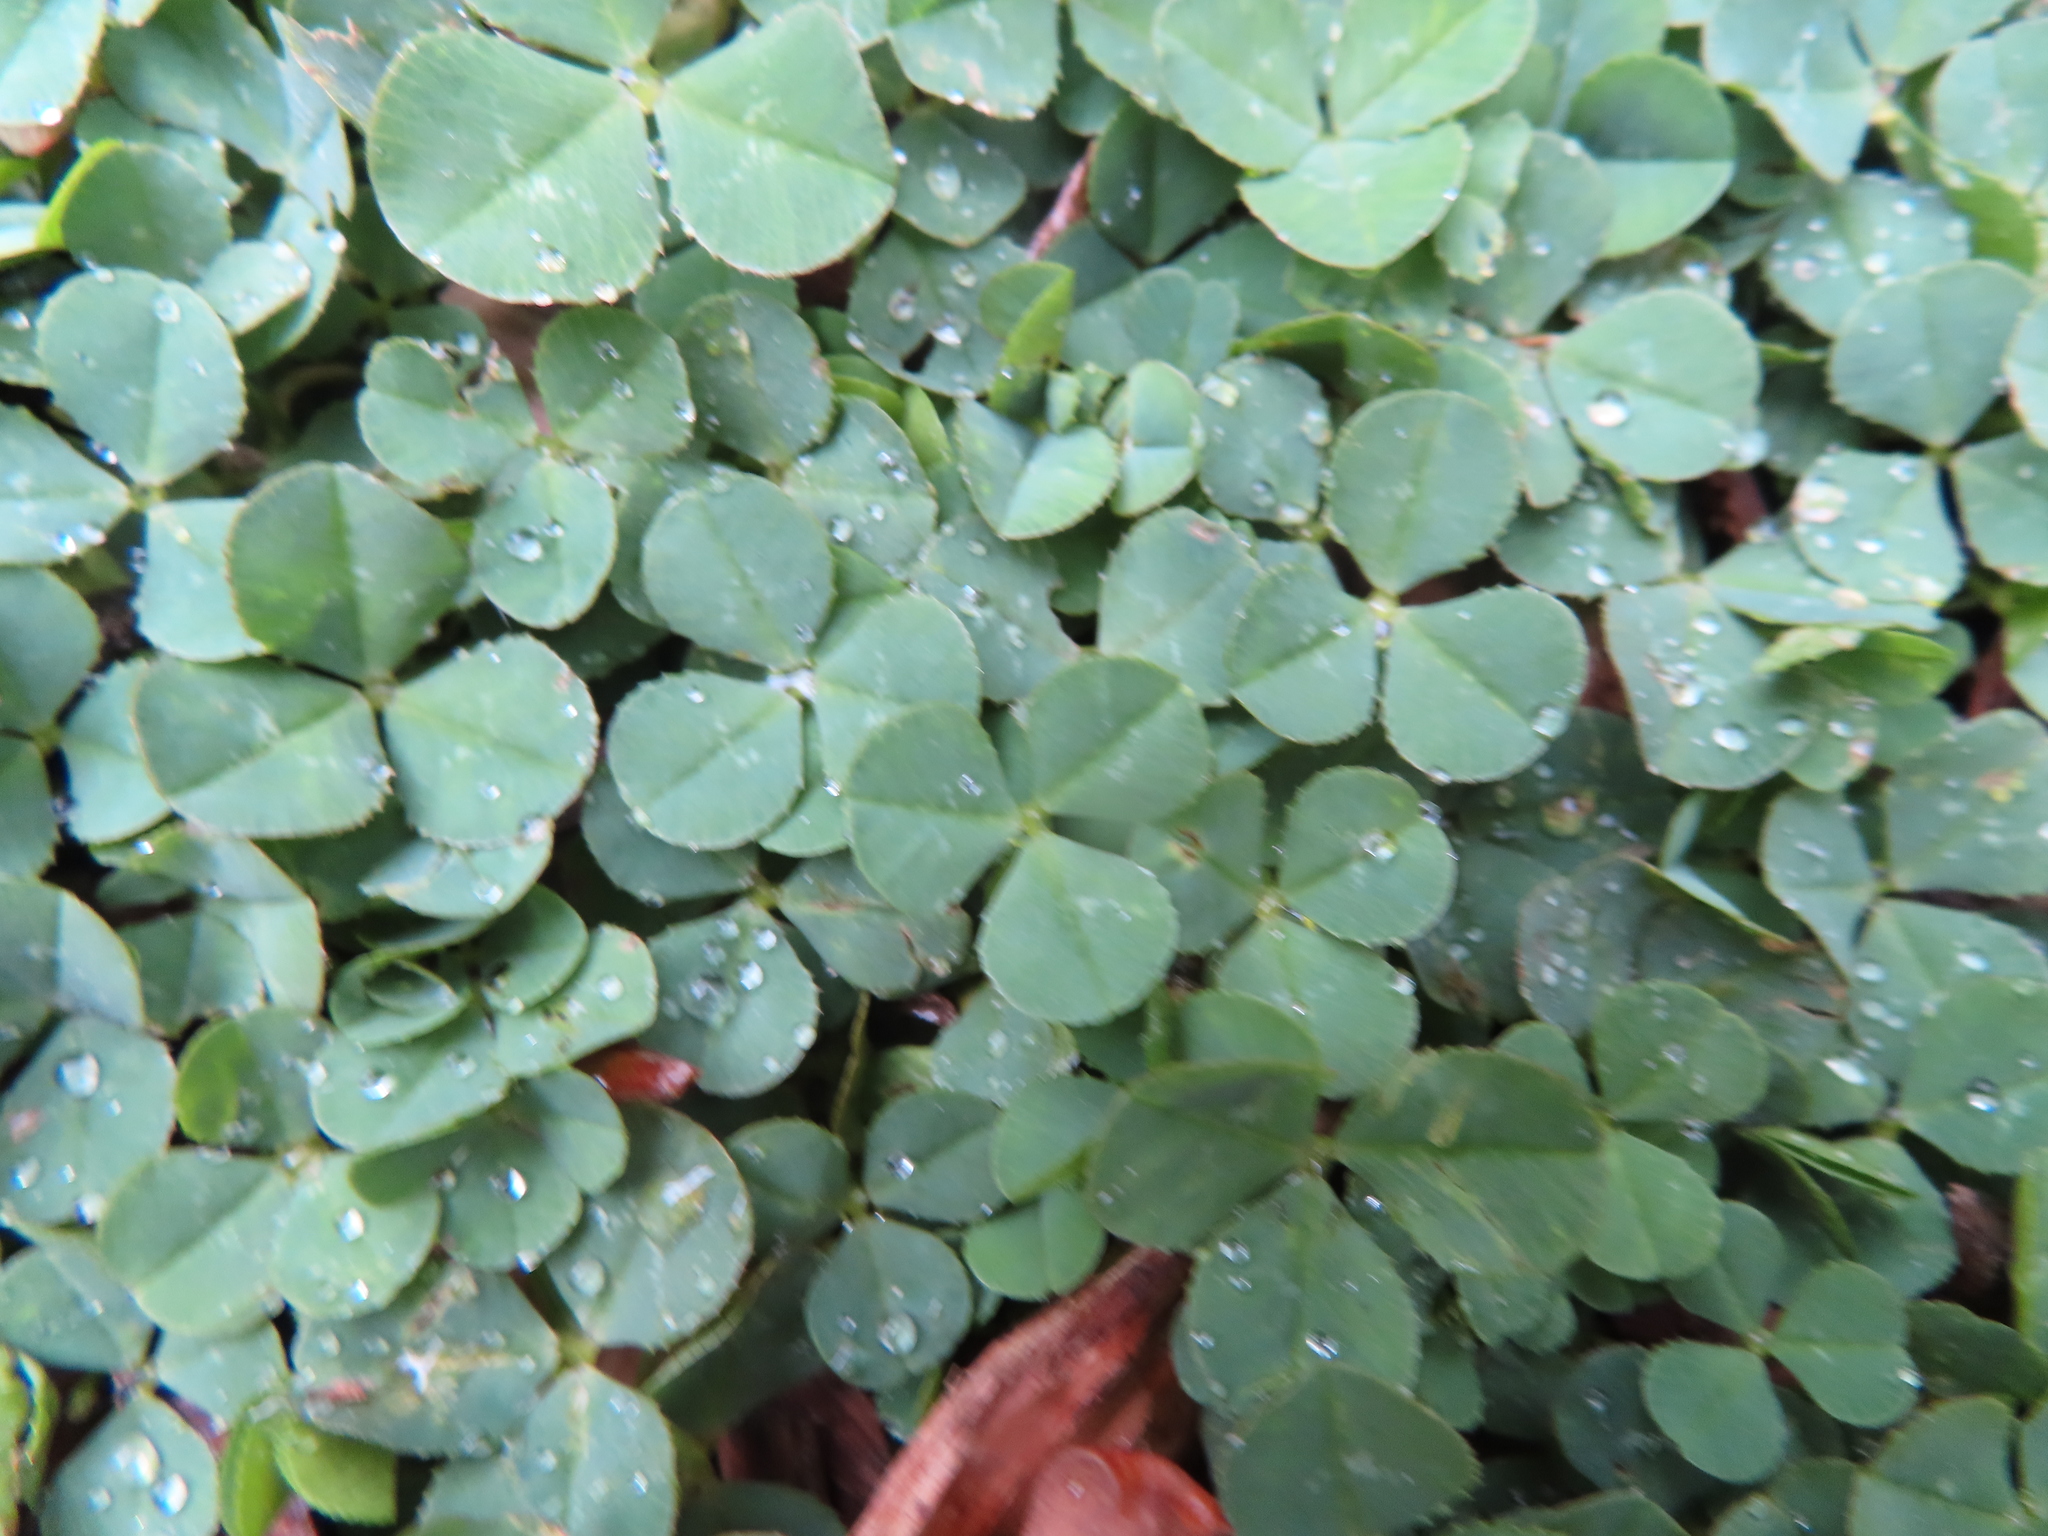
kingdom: Plantae
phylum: Tracheophyta
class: Magnoliopsida
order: Fabales
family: Fabaceae
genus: Trifolium
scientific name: Trifolium repens
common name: White clover
